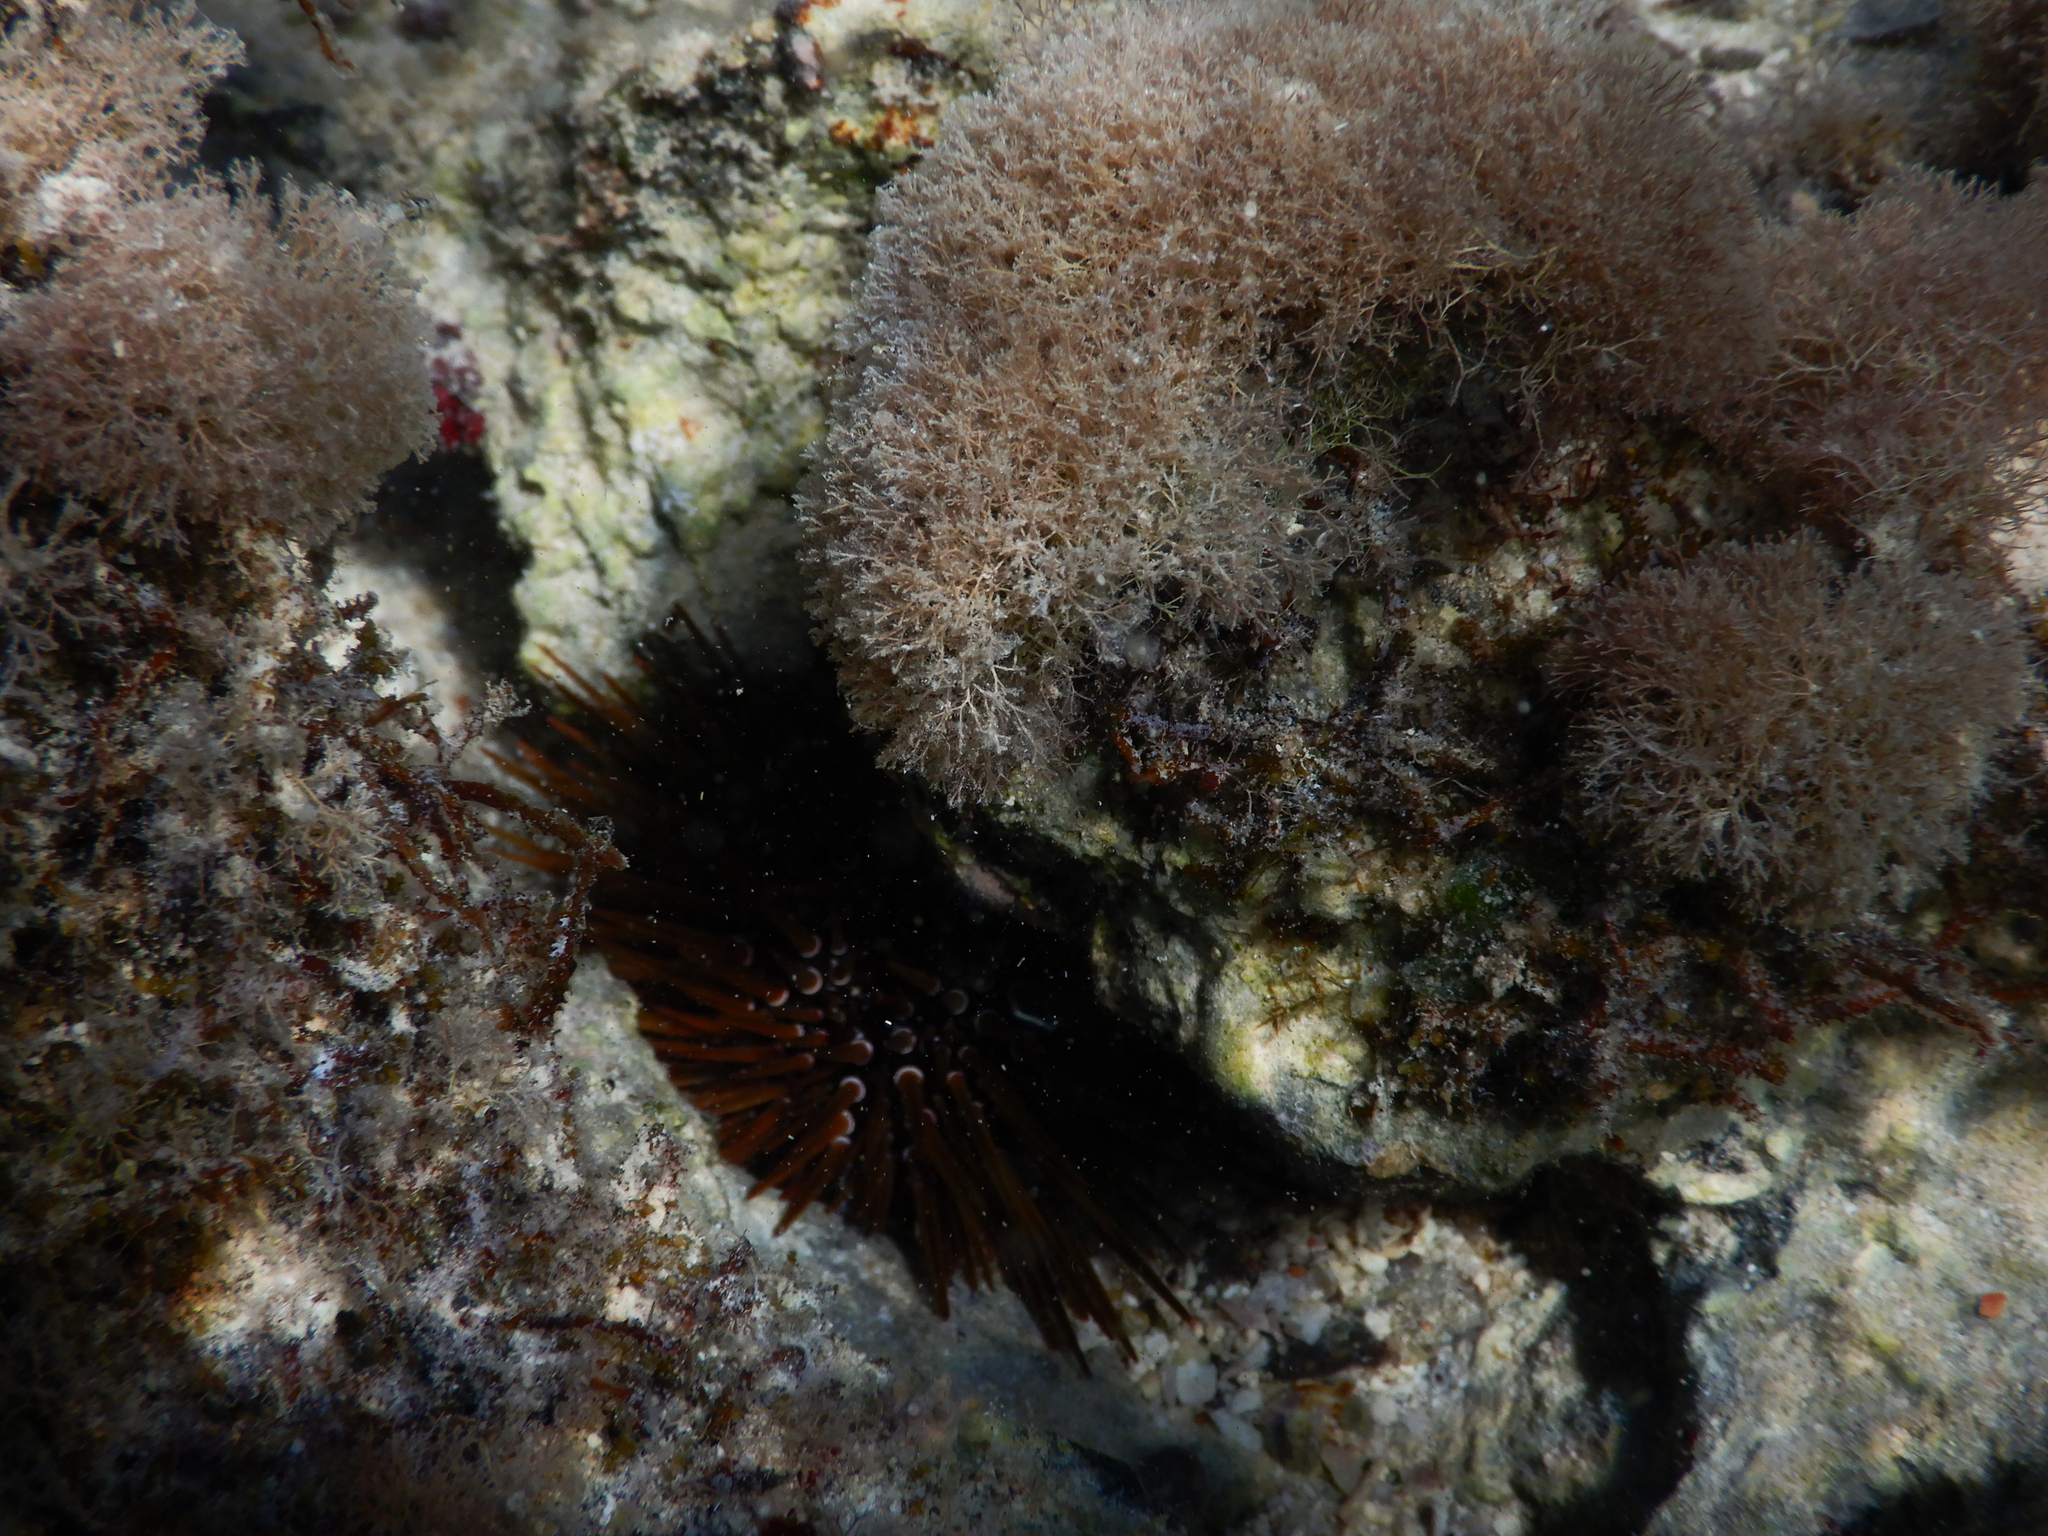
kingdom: Animalia
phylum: Echinodermata
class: Echinoidea
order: Camarodonta
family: Echinometridae
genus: Echinometra
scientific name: Echinometra mathaei
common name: Rock-boring urchin
